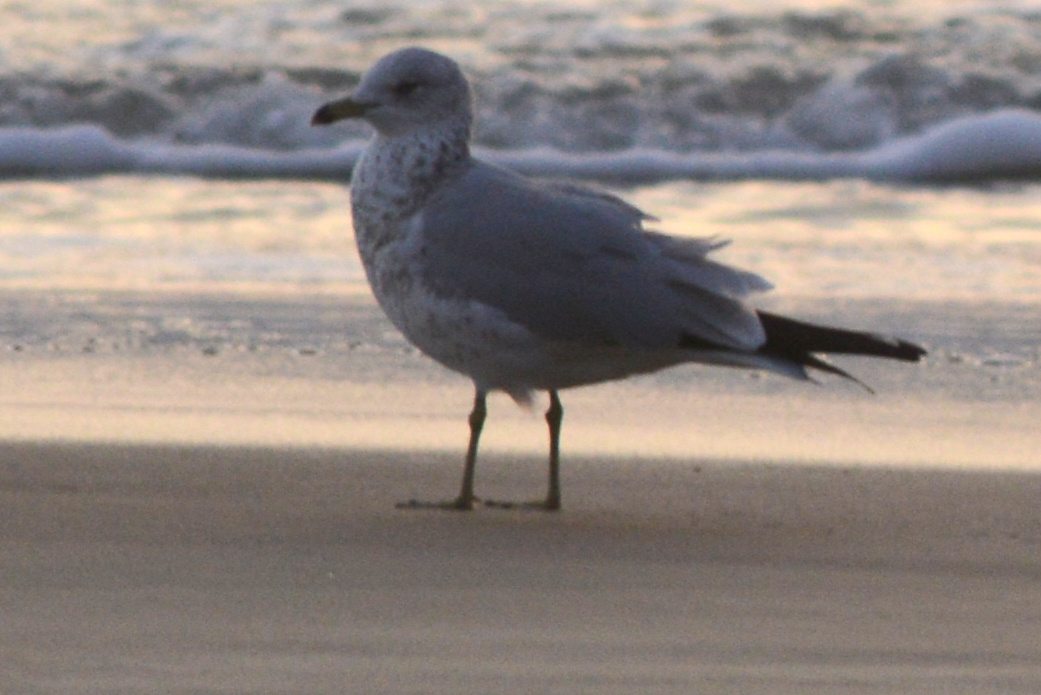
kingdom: Animalia
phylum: Chordata
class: Aves
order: Charadriiformes
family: Laridae
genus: Larus
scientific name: Larus delawarensis
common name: Ring-billed gull
